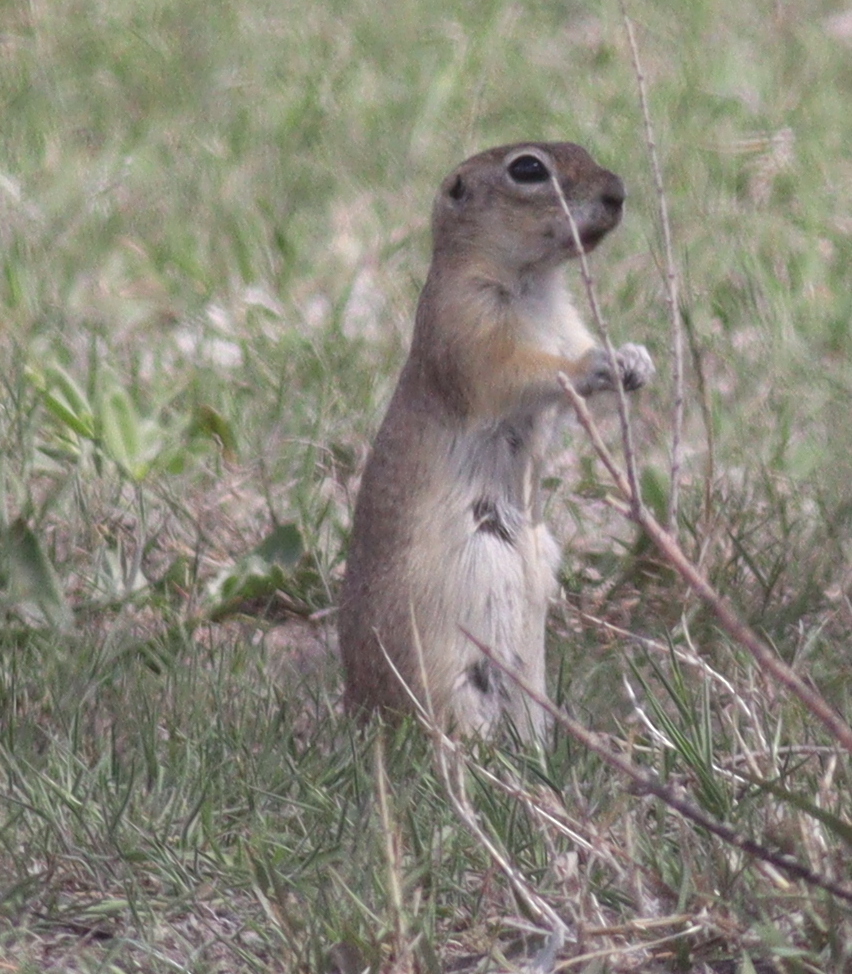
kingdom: Animalia
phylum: Chordata
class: Mammalia
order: Rodentia
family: Sciuridae
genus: Spermophilus
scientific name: Spermophilus xanthoprymnus
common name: Asia minor ground squirrel
